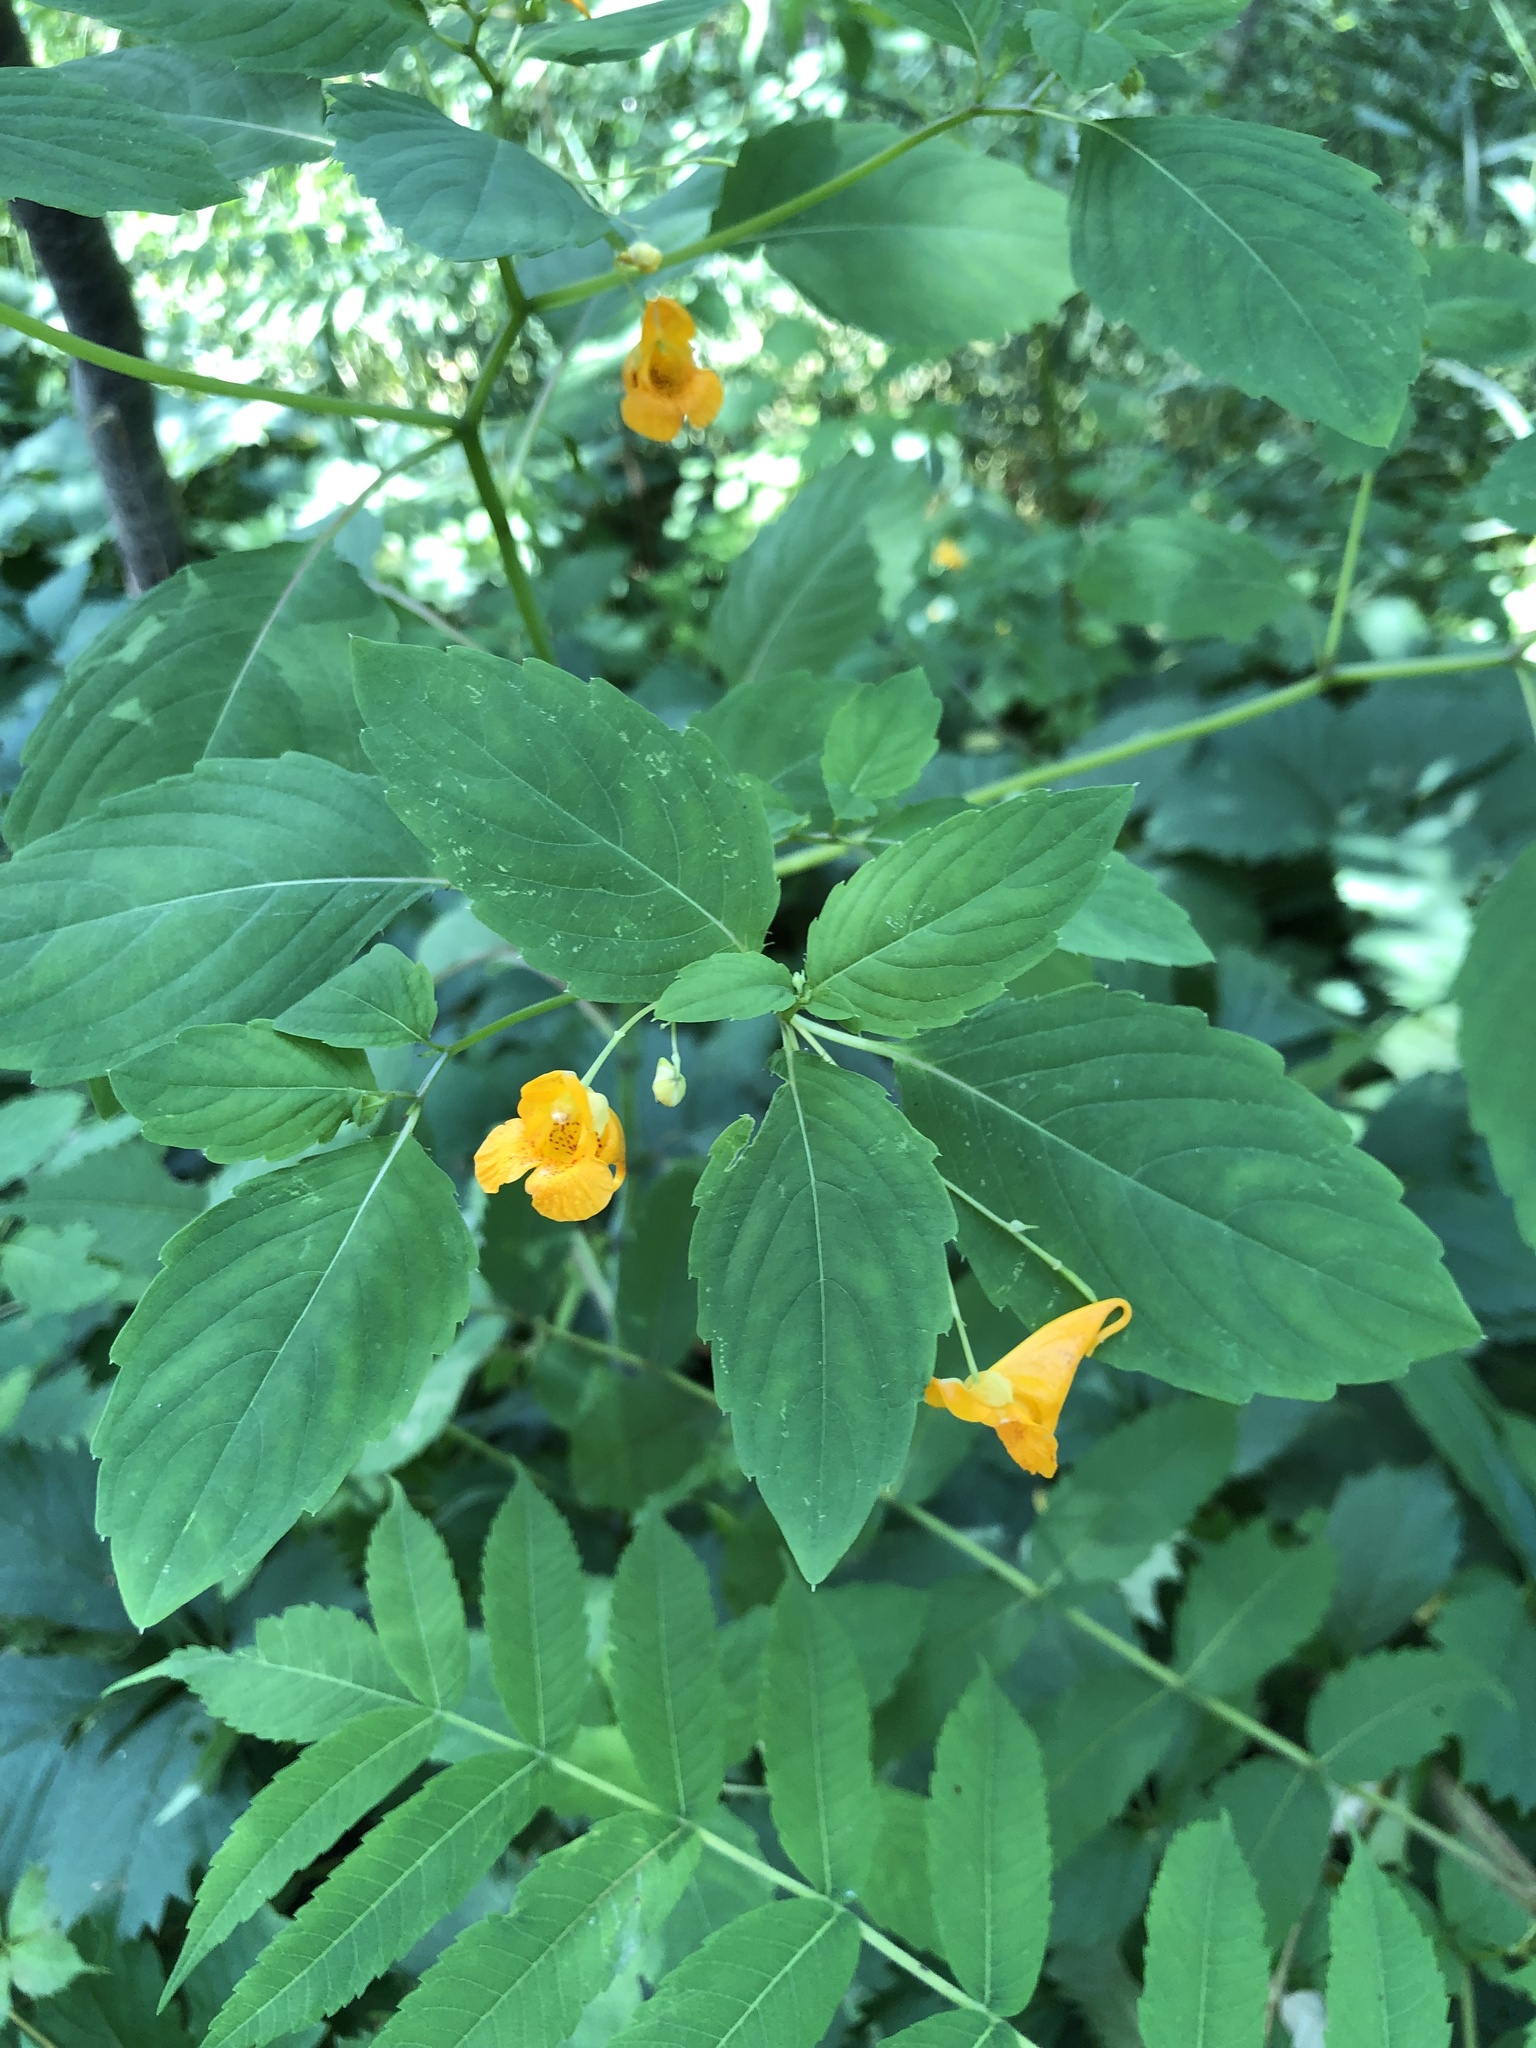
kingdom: Plantae
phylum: Tracheophyta
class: Magnoliopsida
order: Ericales
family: Balsaminaceae
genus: Impatiens
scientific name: Impatiens capensis
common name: Orange balsam
